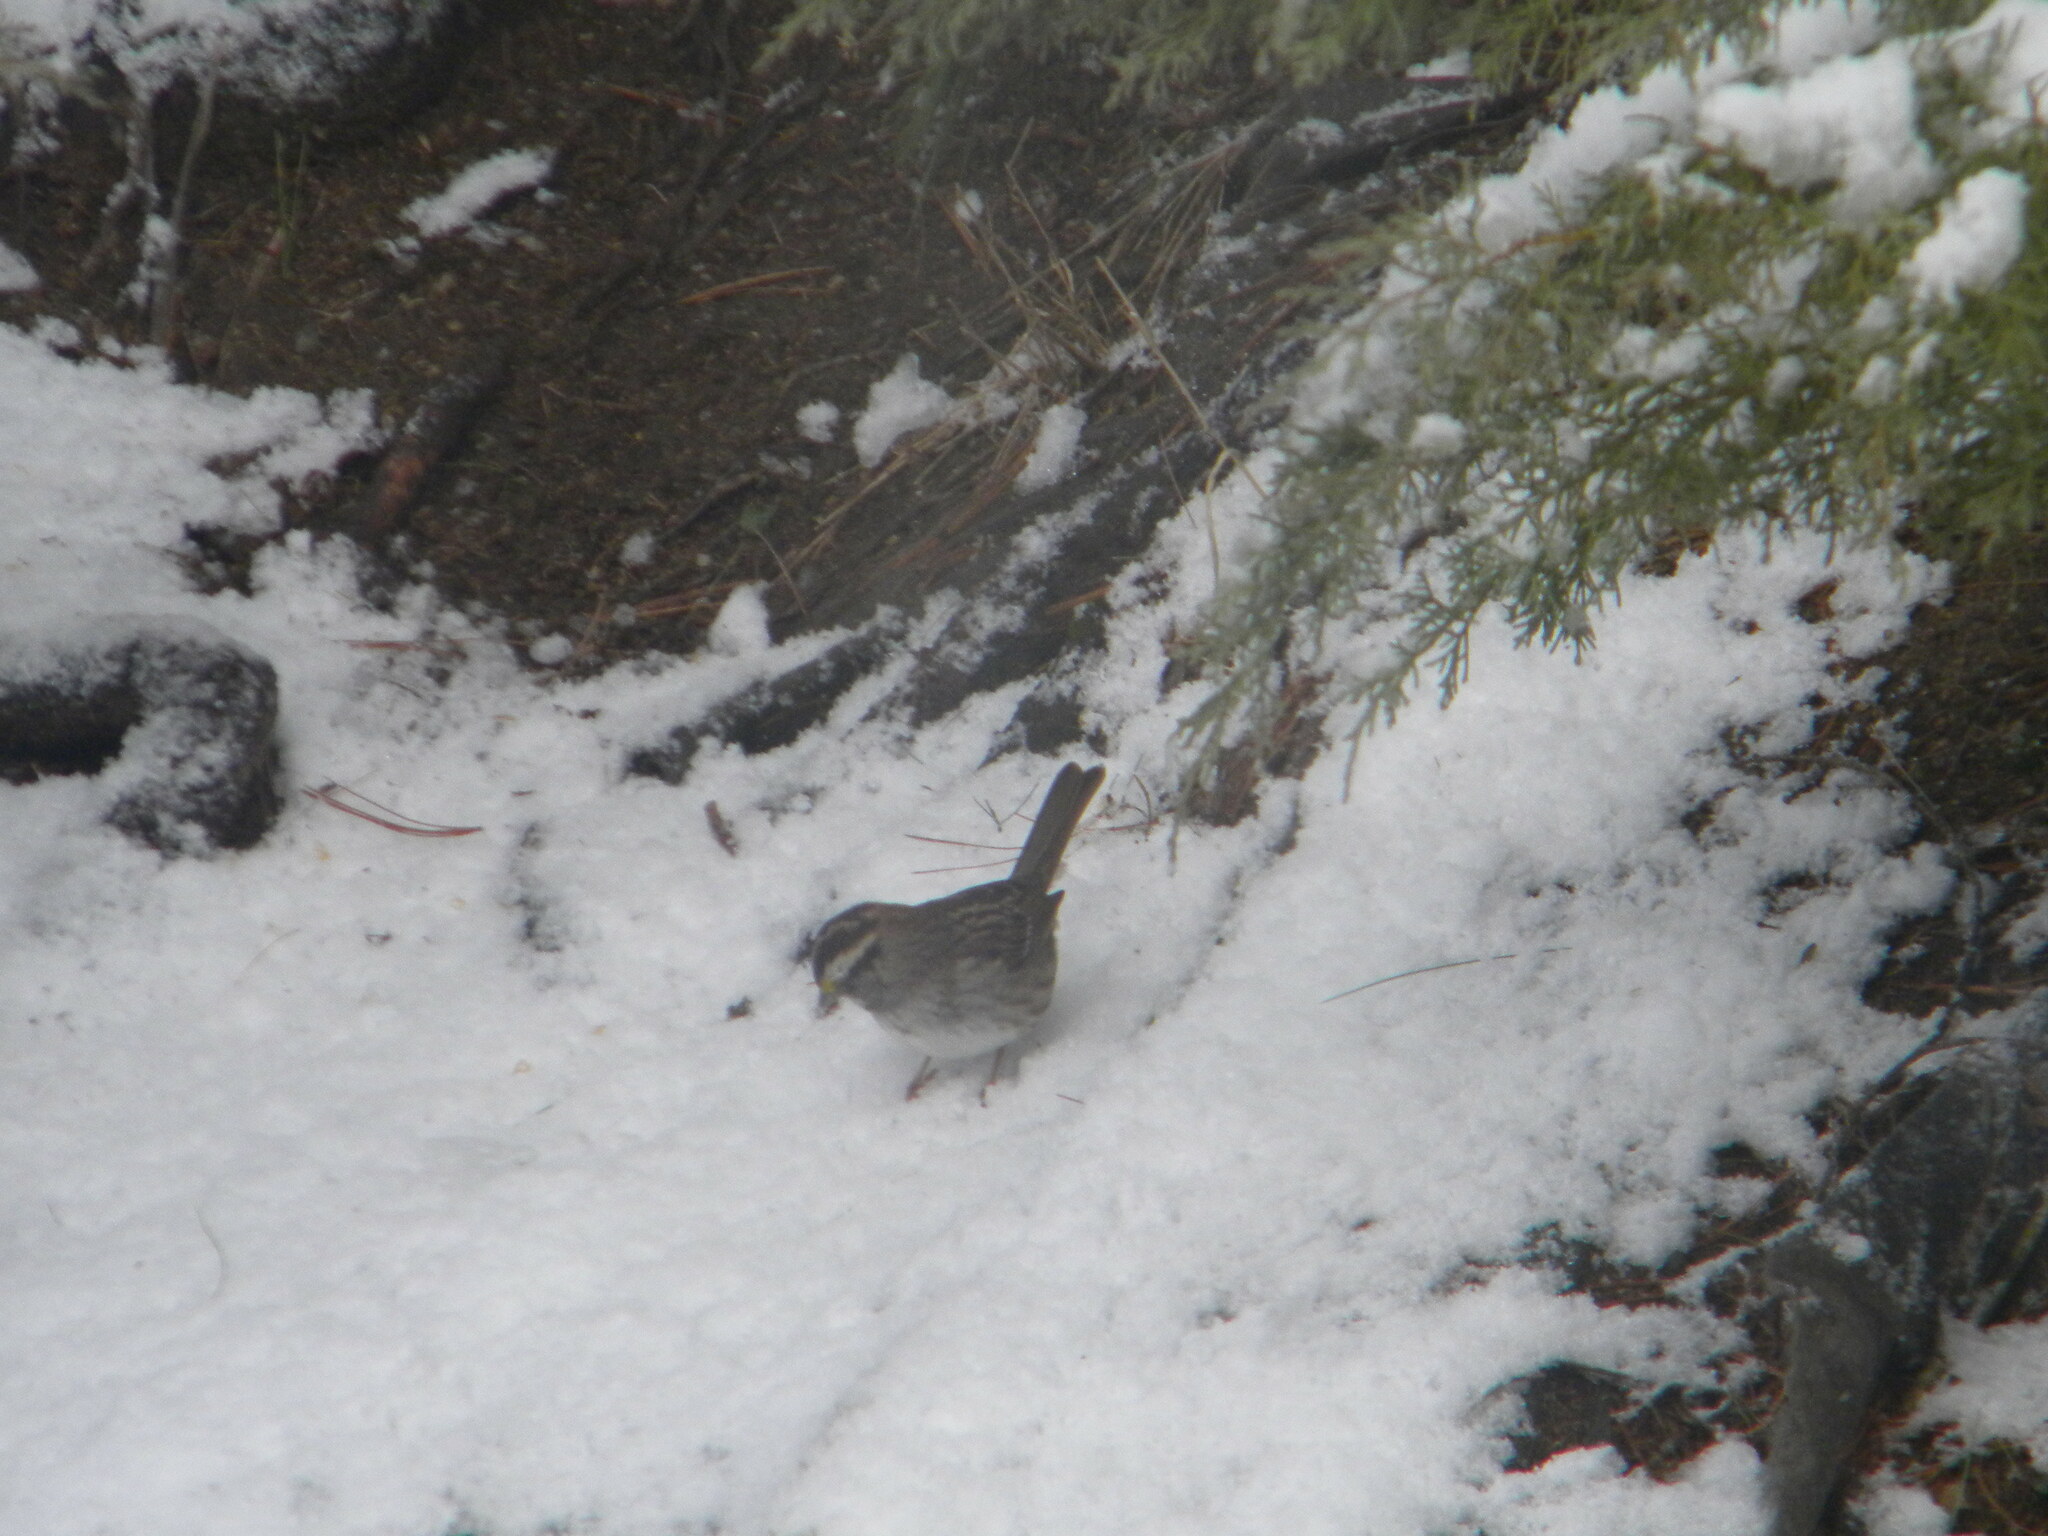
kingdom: Animalia
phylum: Chordata
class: Aves
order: Passeriformes
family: Passerellidae
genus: Zonotrichia
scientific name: Zonotrichia albicollis
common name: White-throated sparrow
